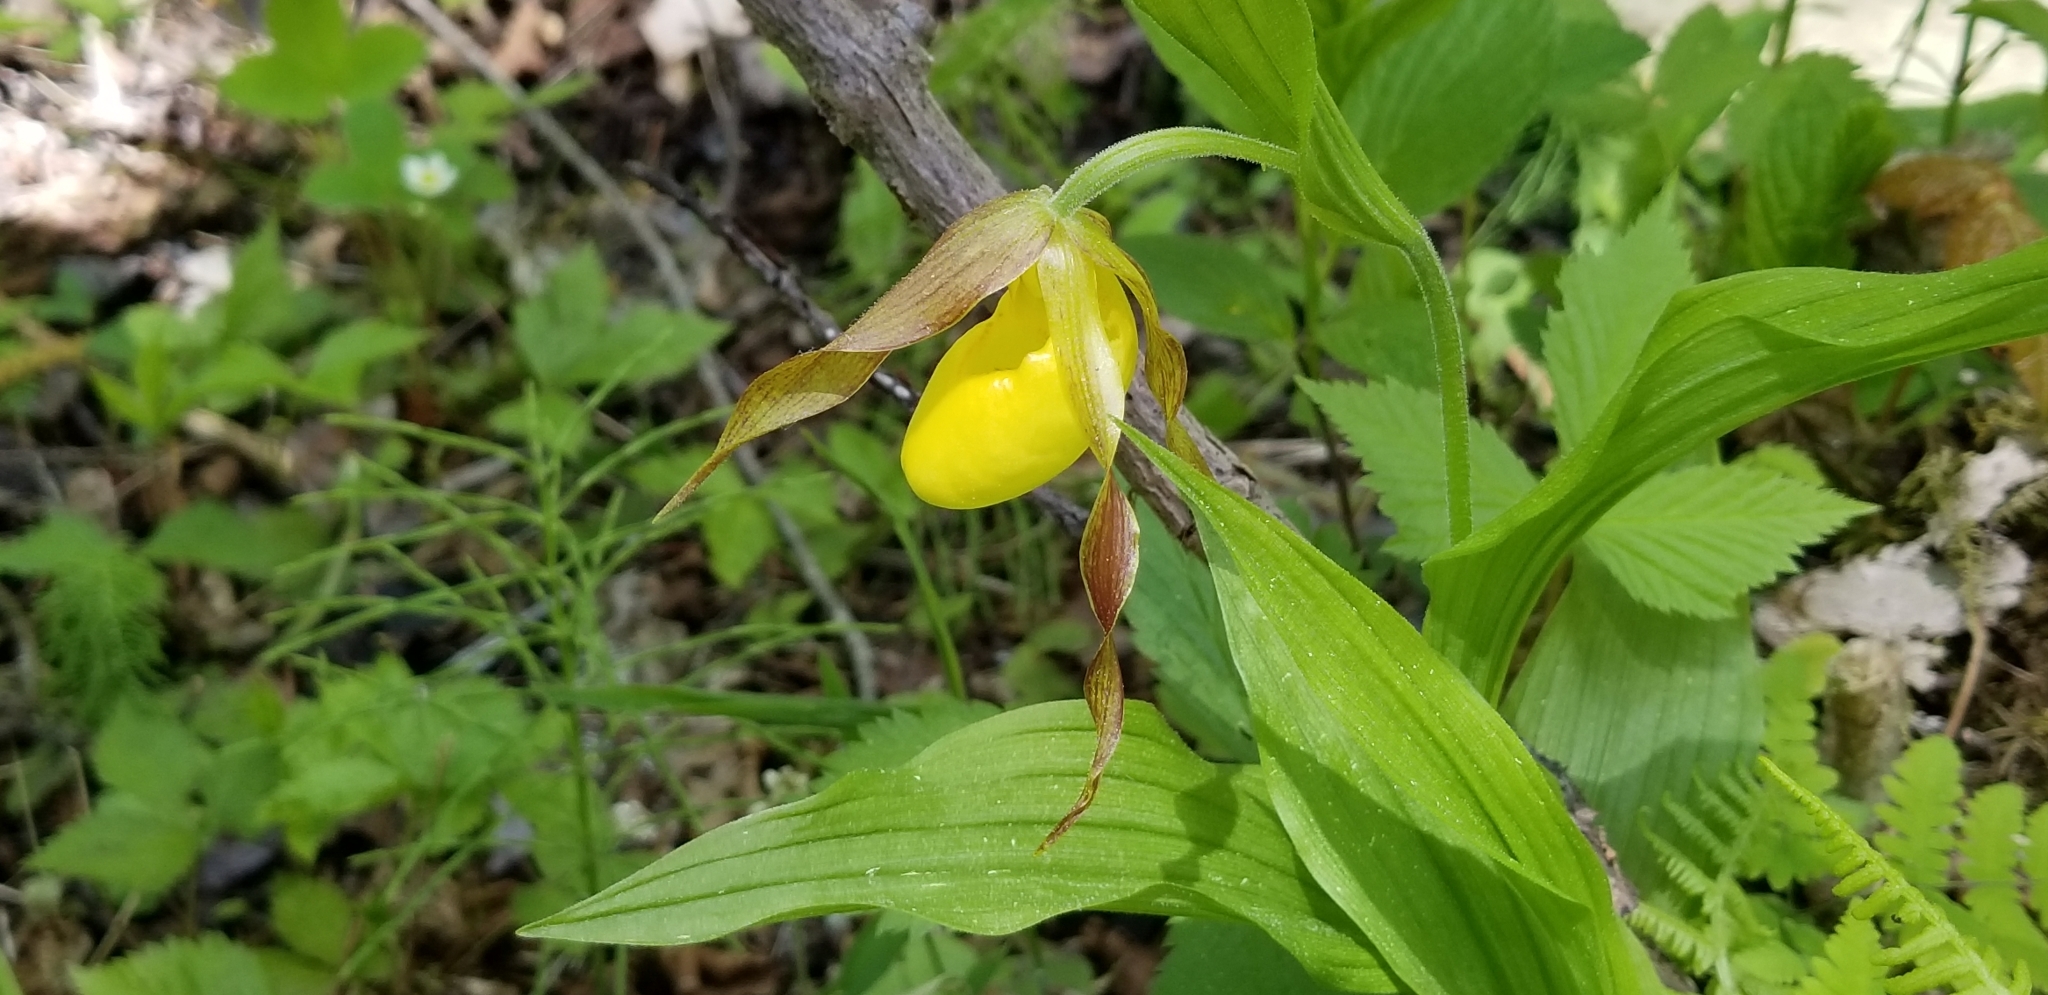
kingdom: Plantae
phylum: Tracheophyta
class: Liliopsida
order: Asparagales
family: Orchidaceae
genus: Cypripedium
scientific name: Cypripedium parviflorum
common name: American yellow lady's-slipper
